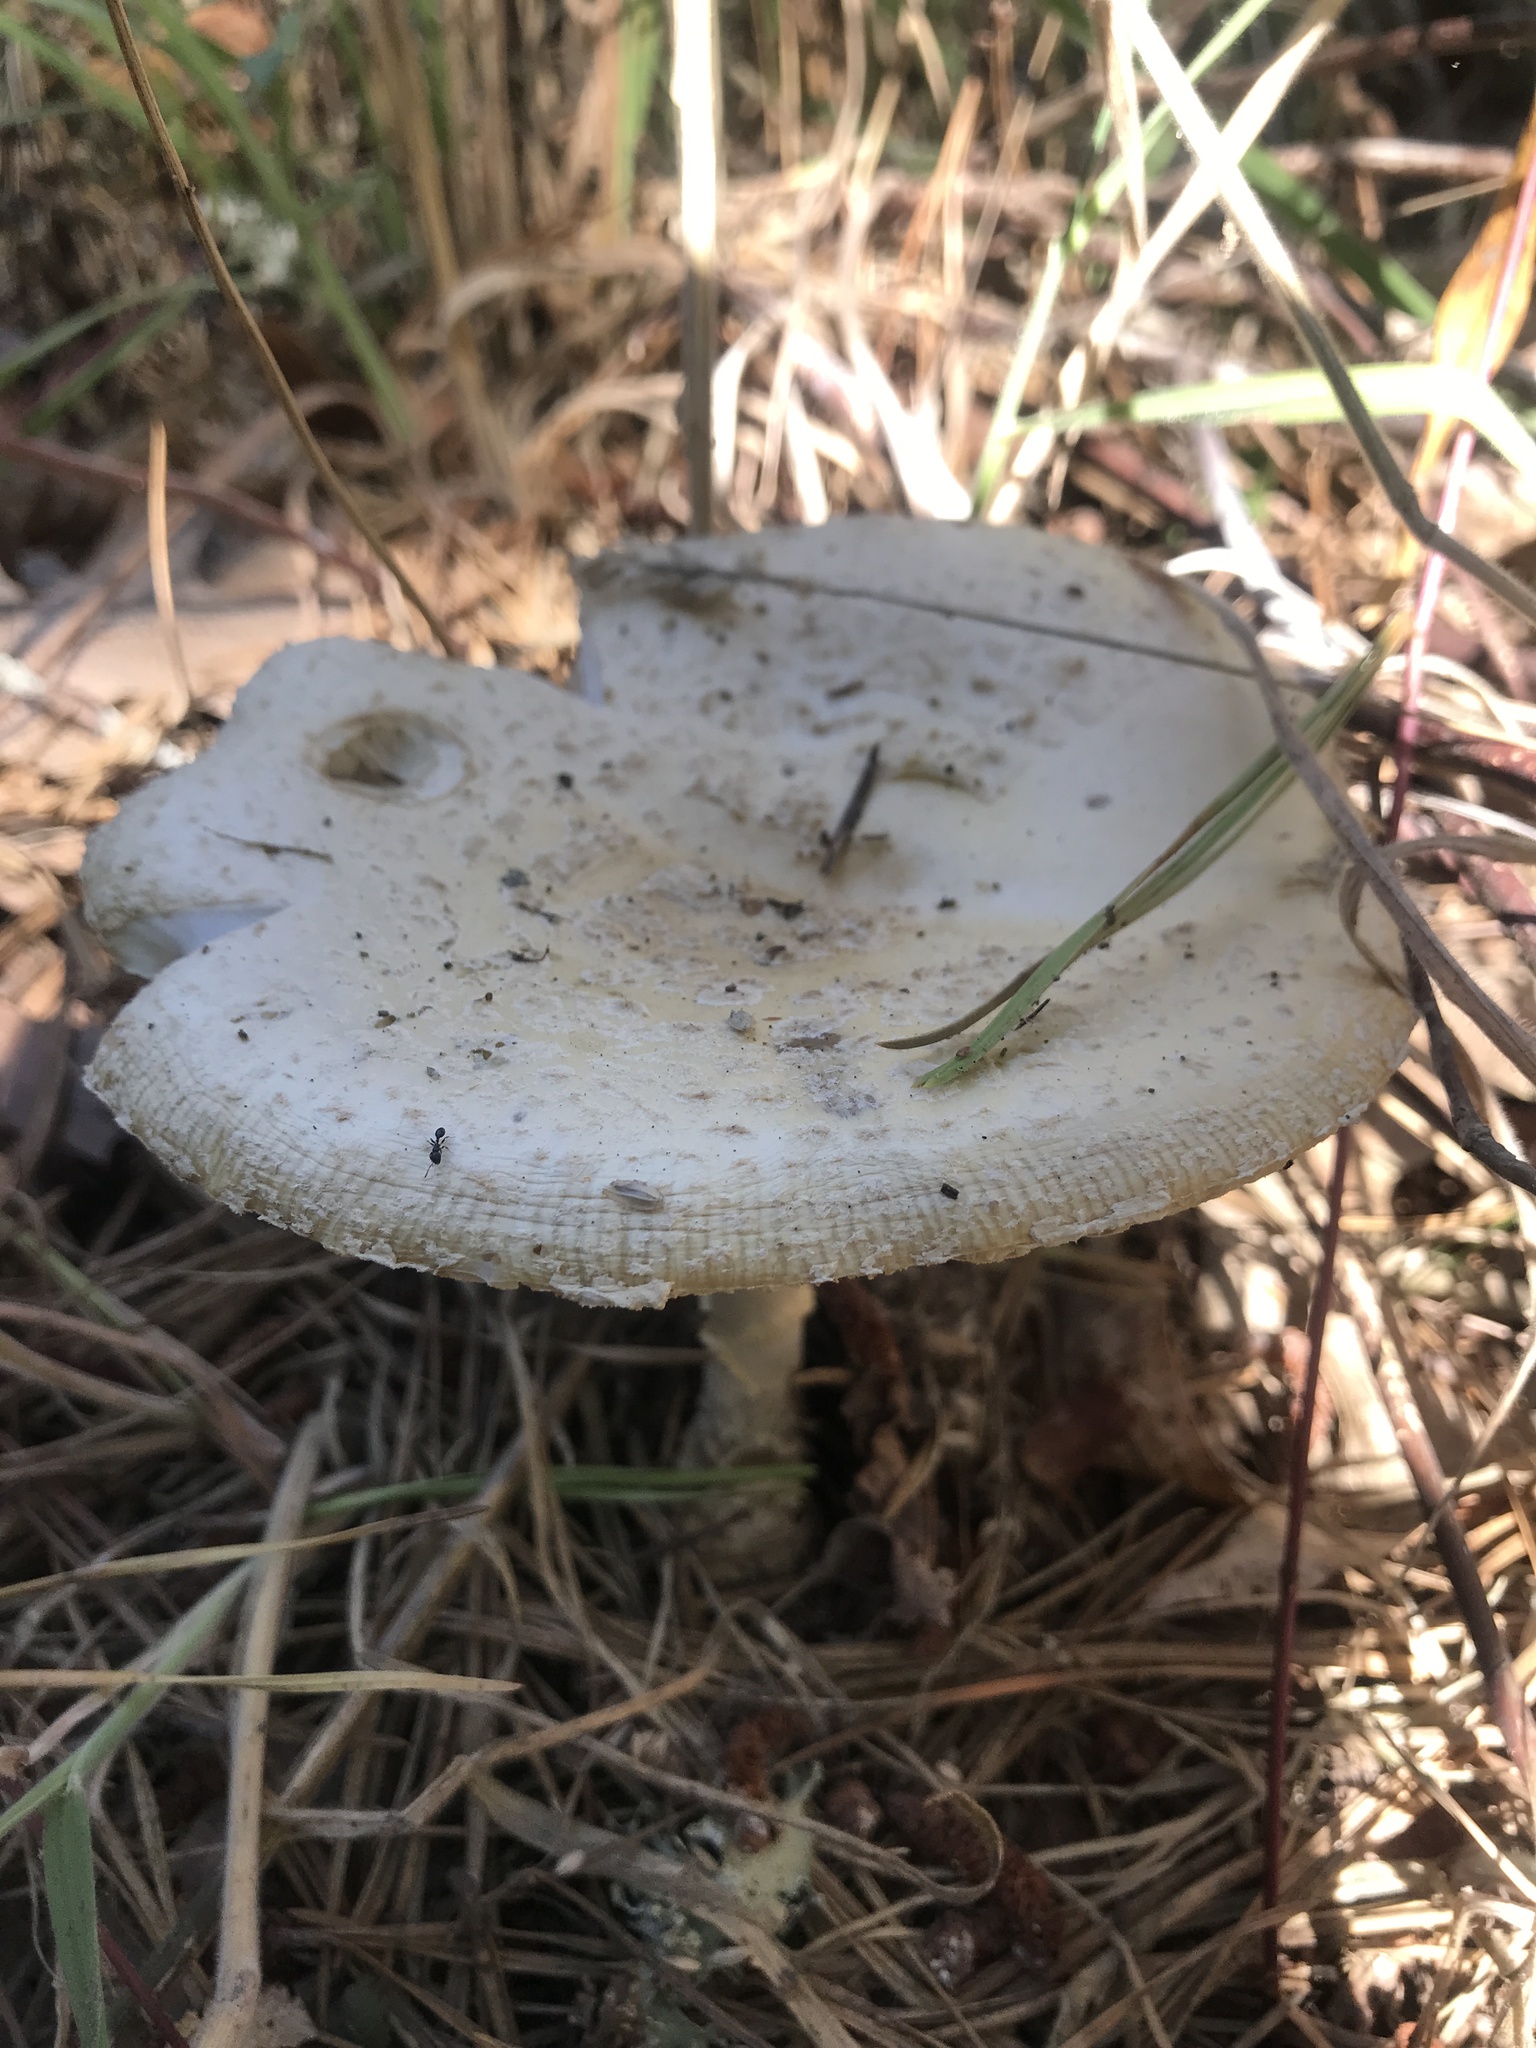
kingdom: Fungi
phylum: Basidiomycota
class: Agaricomycetes
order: Agaricales
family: Amanitaceae
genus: Amanita
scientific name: Amanita muscaria
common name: Fly agaric
